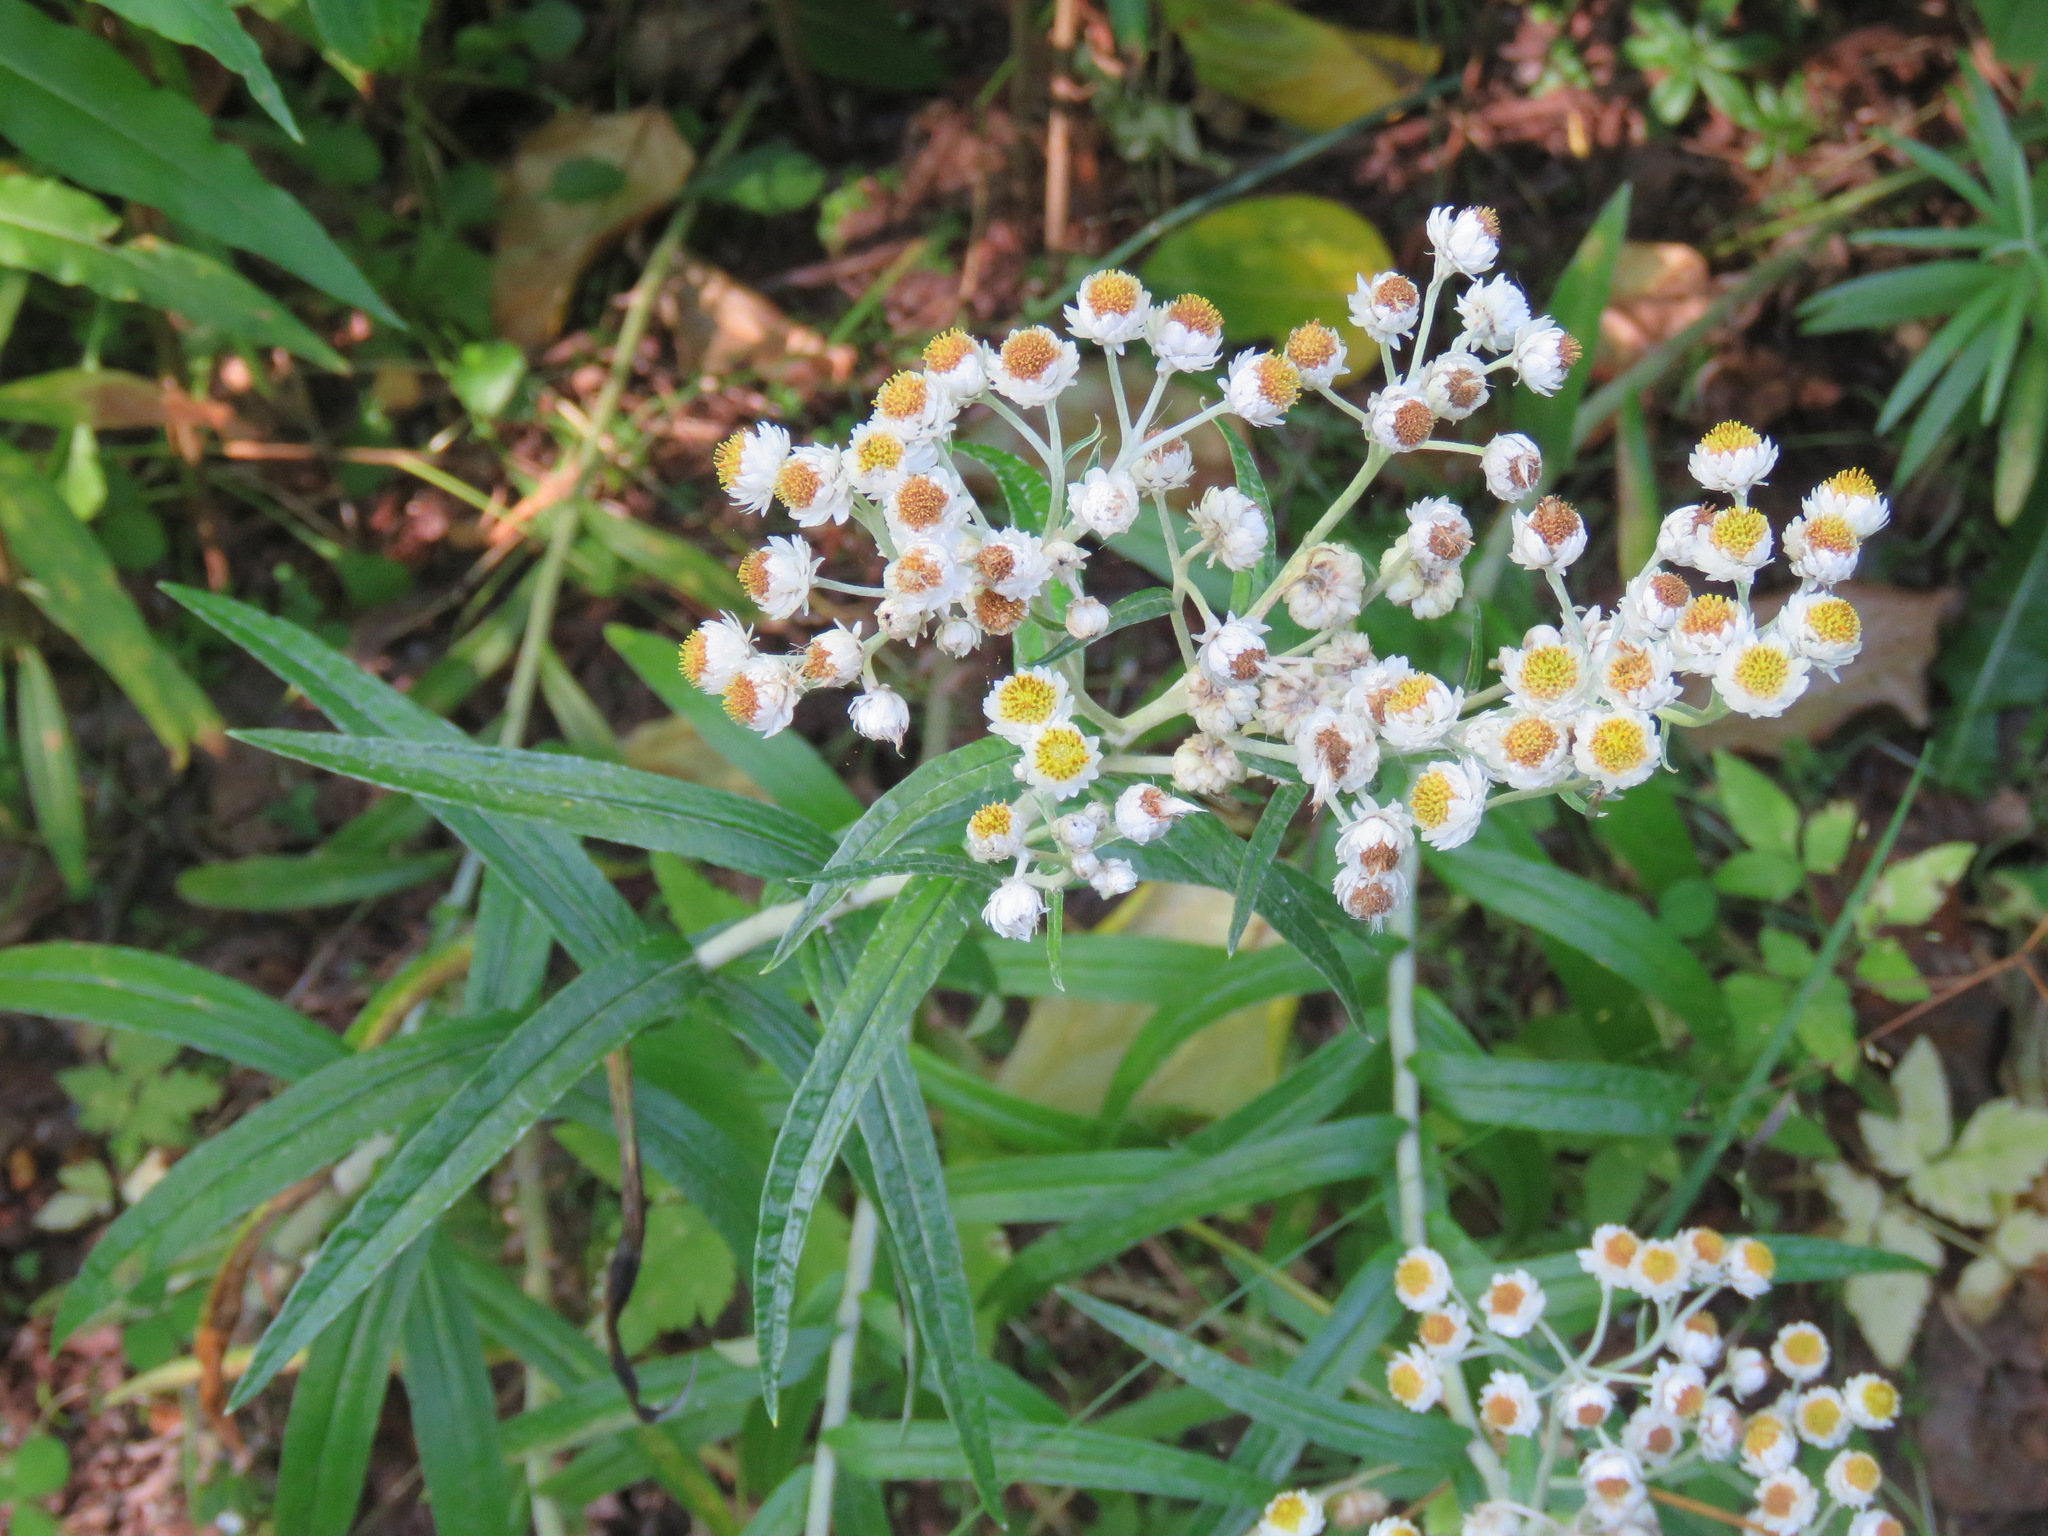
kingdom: Plantae
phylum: Tracheophyta
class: Magnoliopsida
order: Asterales
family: Asteraceae
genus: Anaphalis
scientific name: Anaphalis margaritacea
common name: Pearly everlasting
